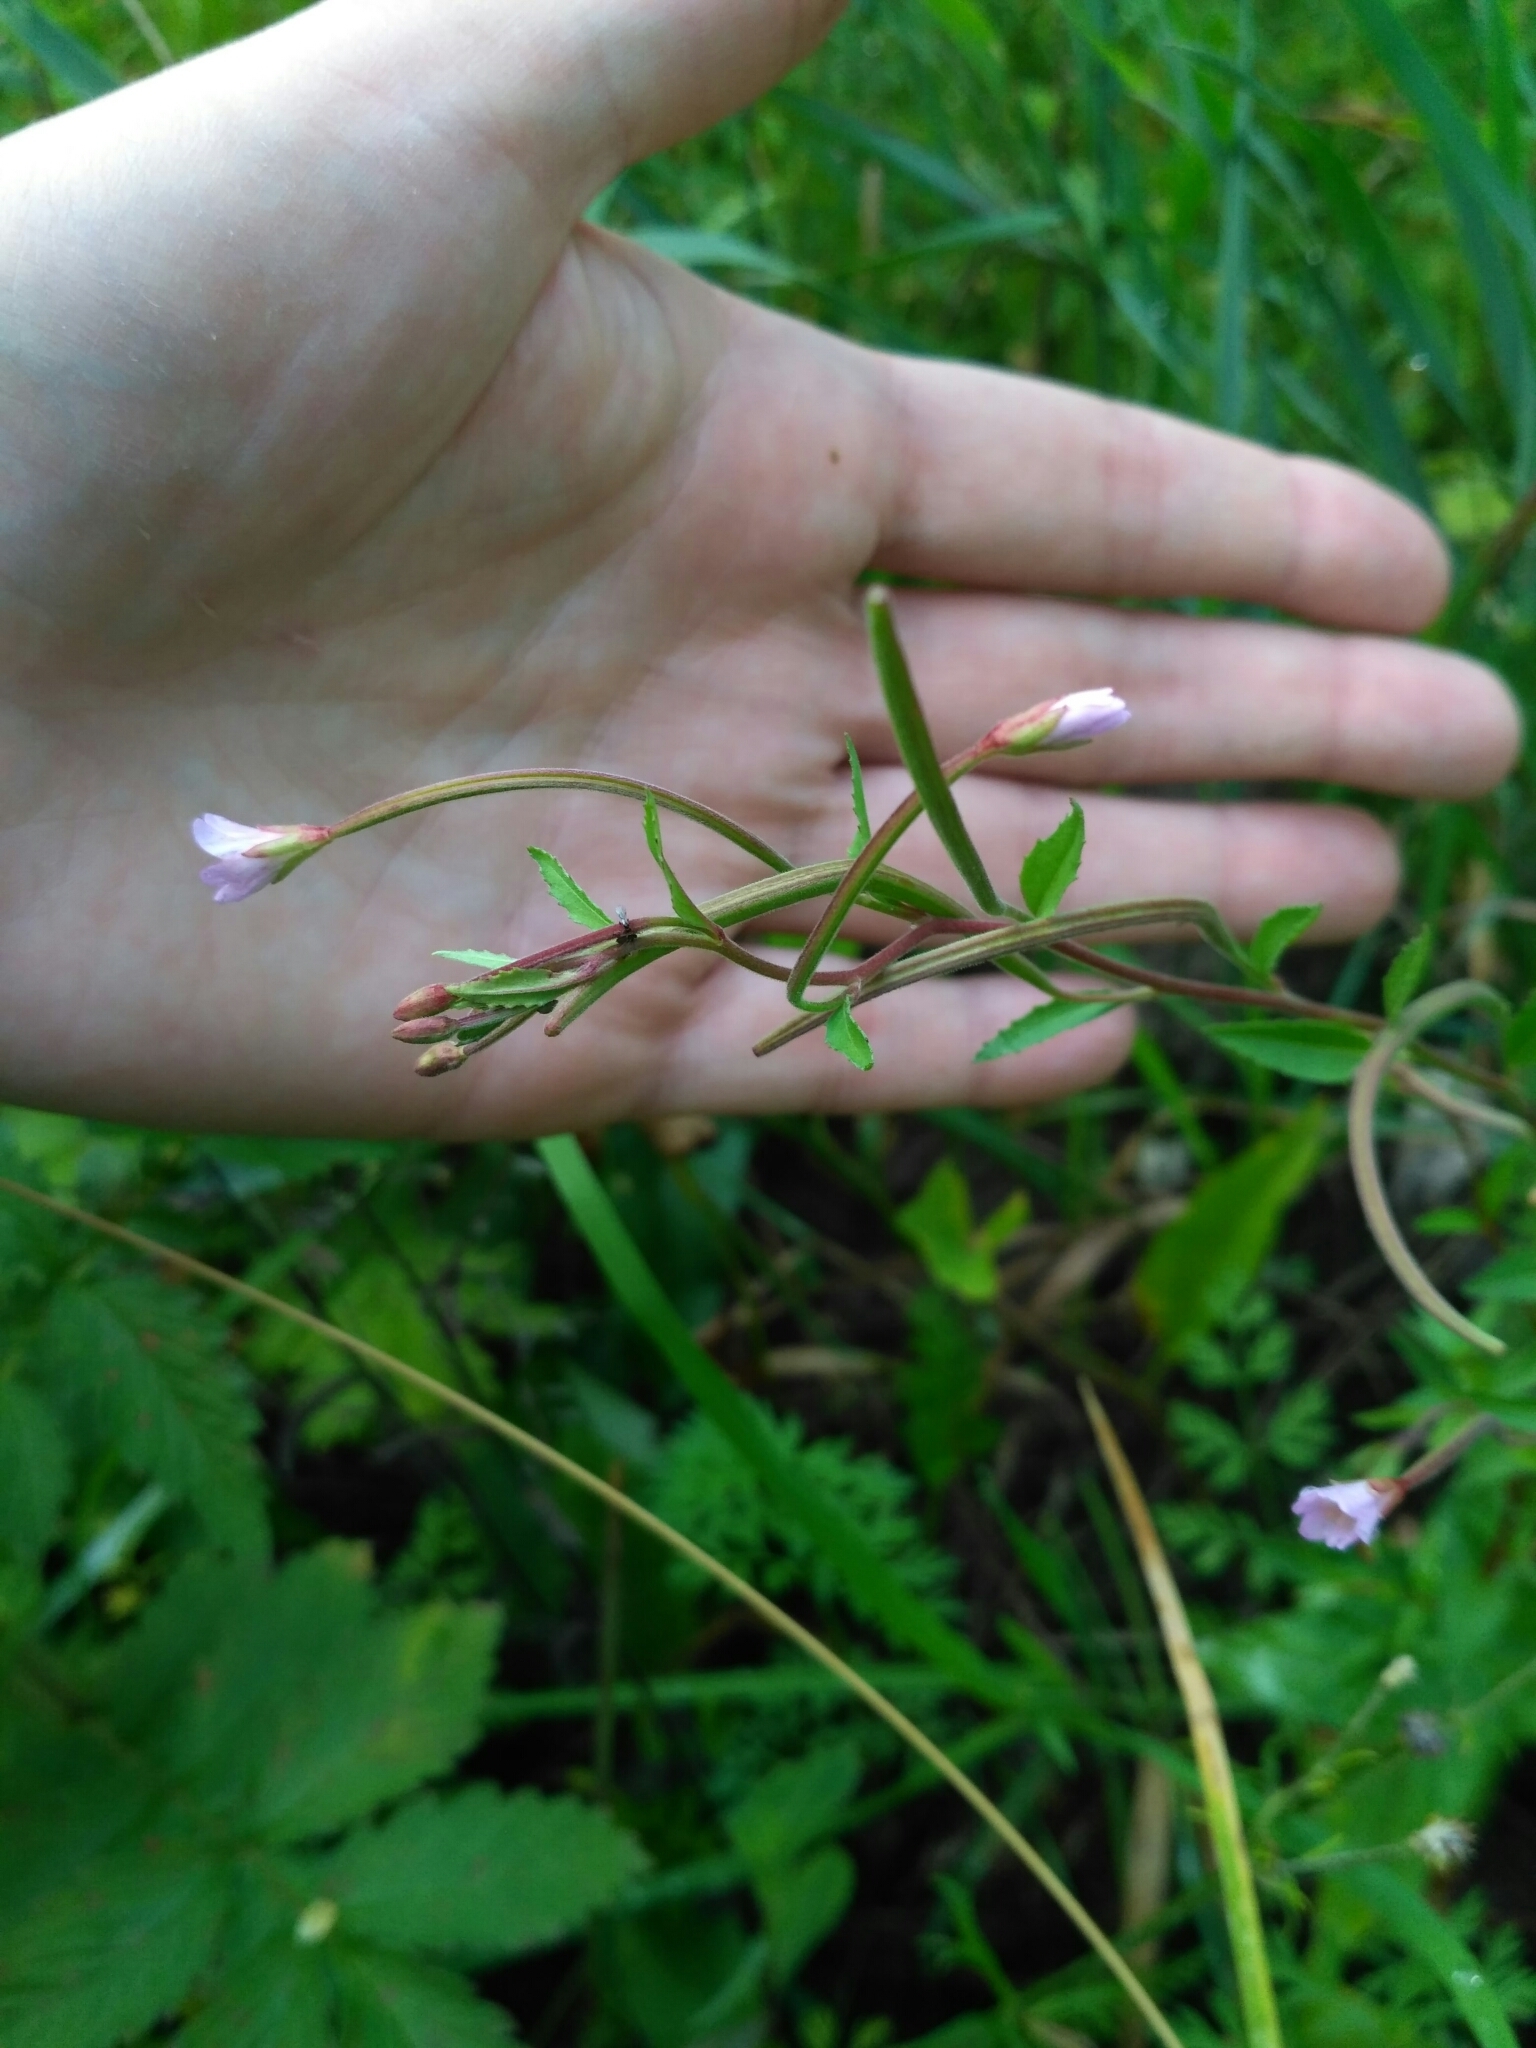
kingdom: Plantae
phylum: Tracheophyta
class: Magnoliopsida
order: Myrtales
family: Onagraceae
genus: Epilobium
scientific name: Epilobium montanum
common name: Broad-leaved willowherb
